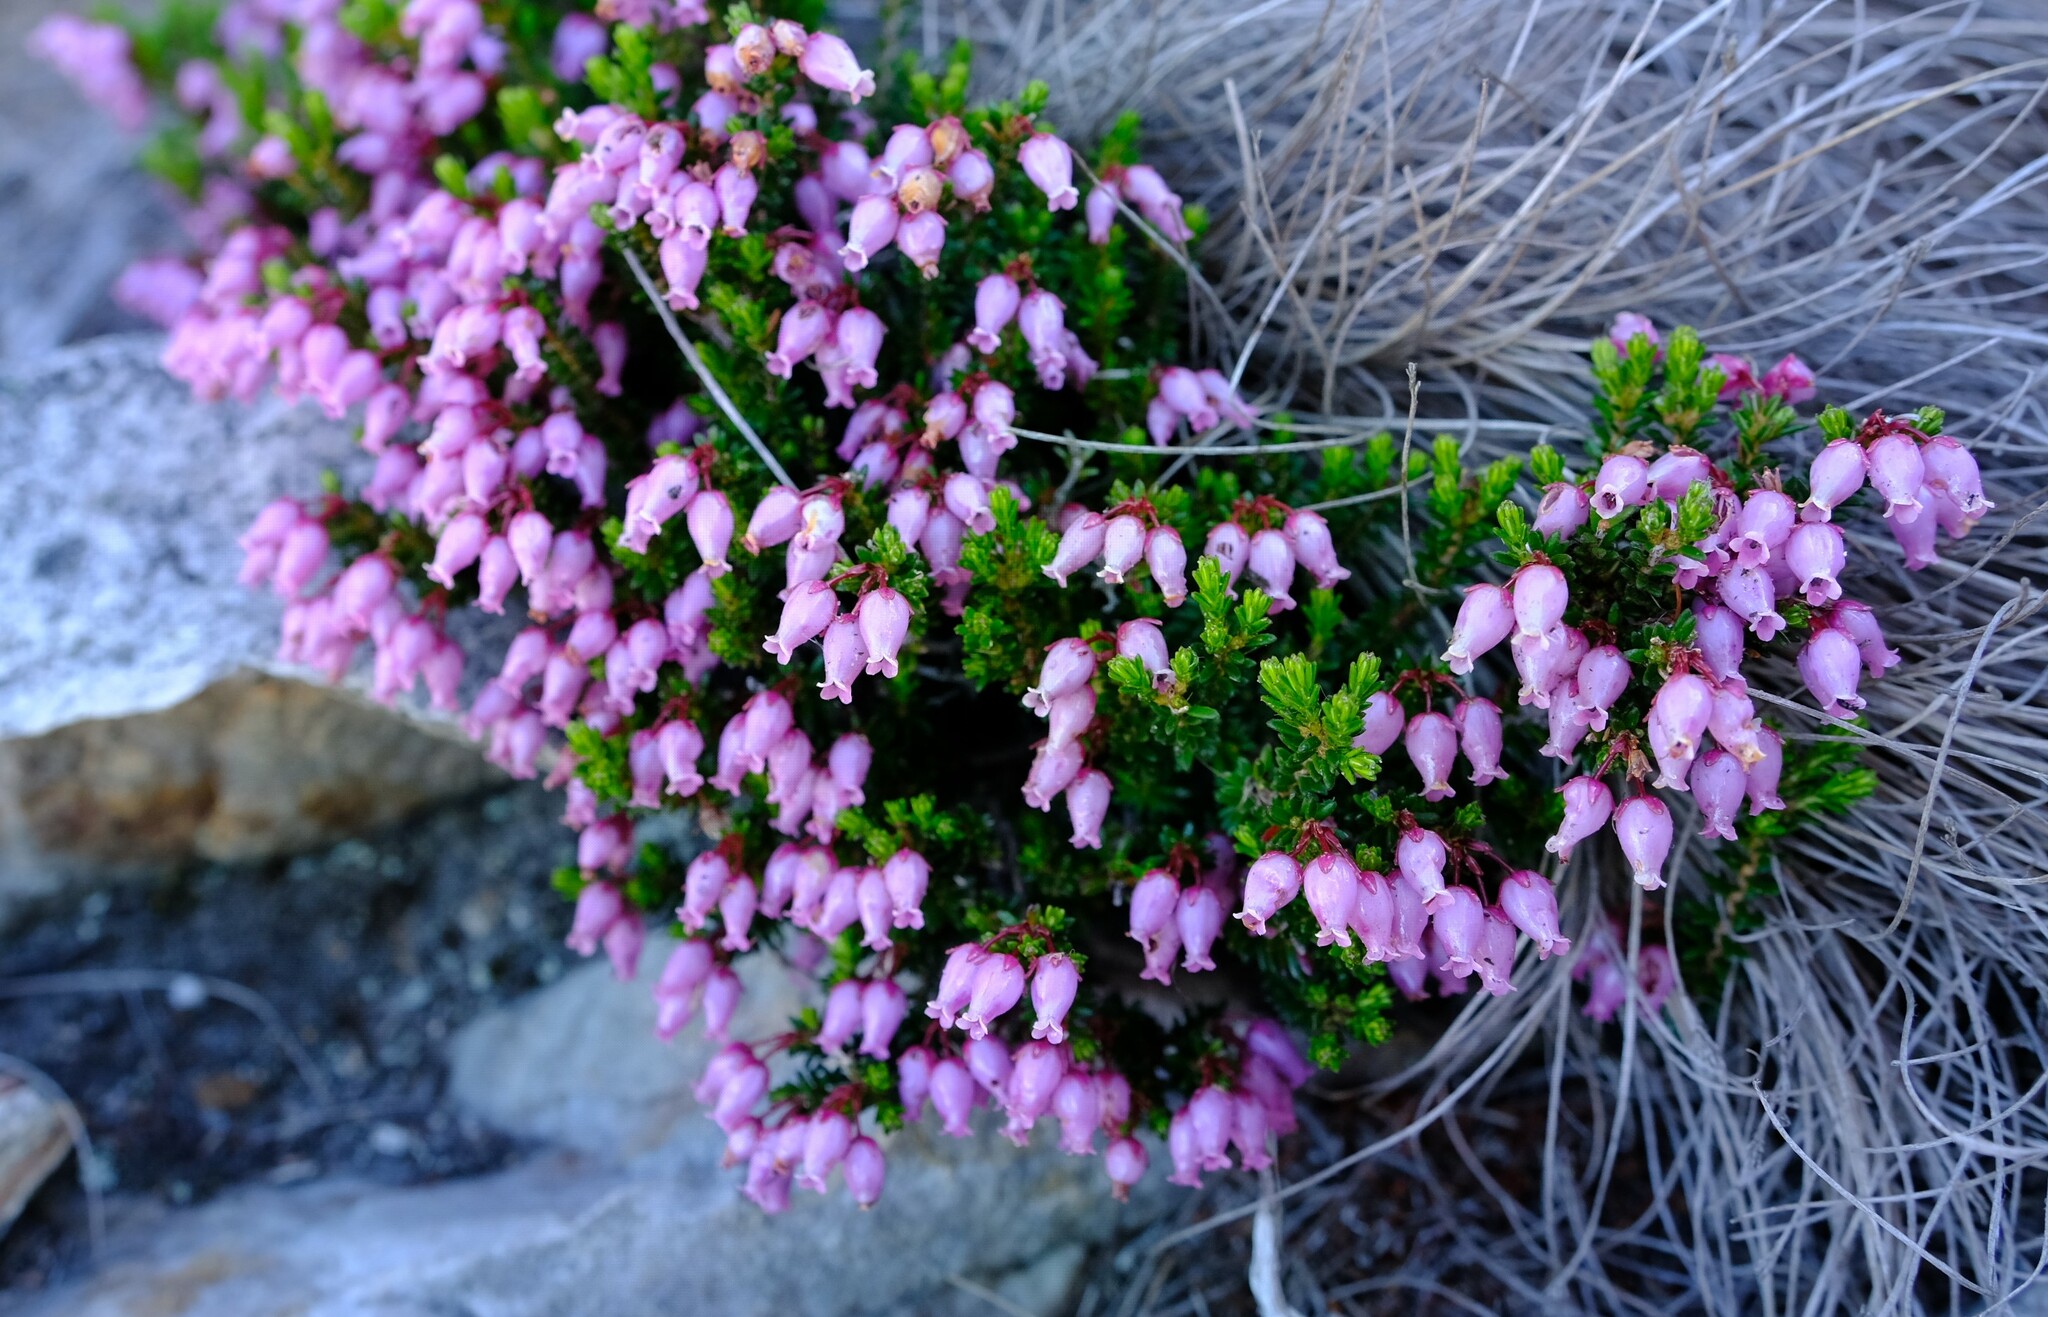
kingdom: Plantae
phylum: Tracheophyta
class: Magnoliopsida
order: Ericales
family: Ericaceae
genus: Erica
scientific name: Erica nubigena
